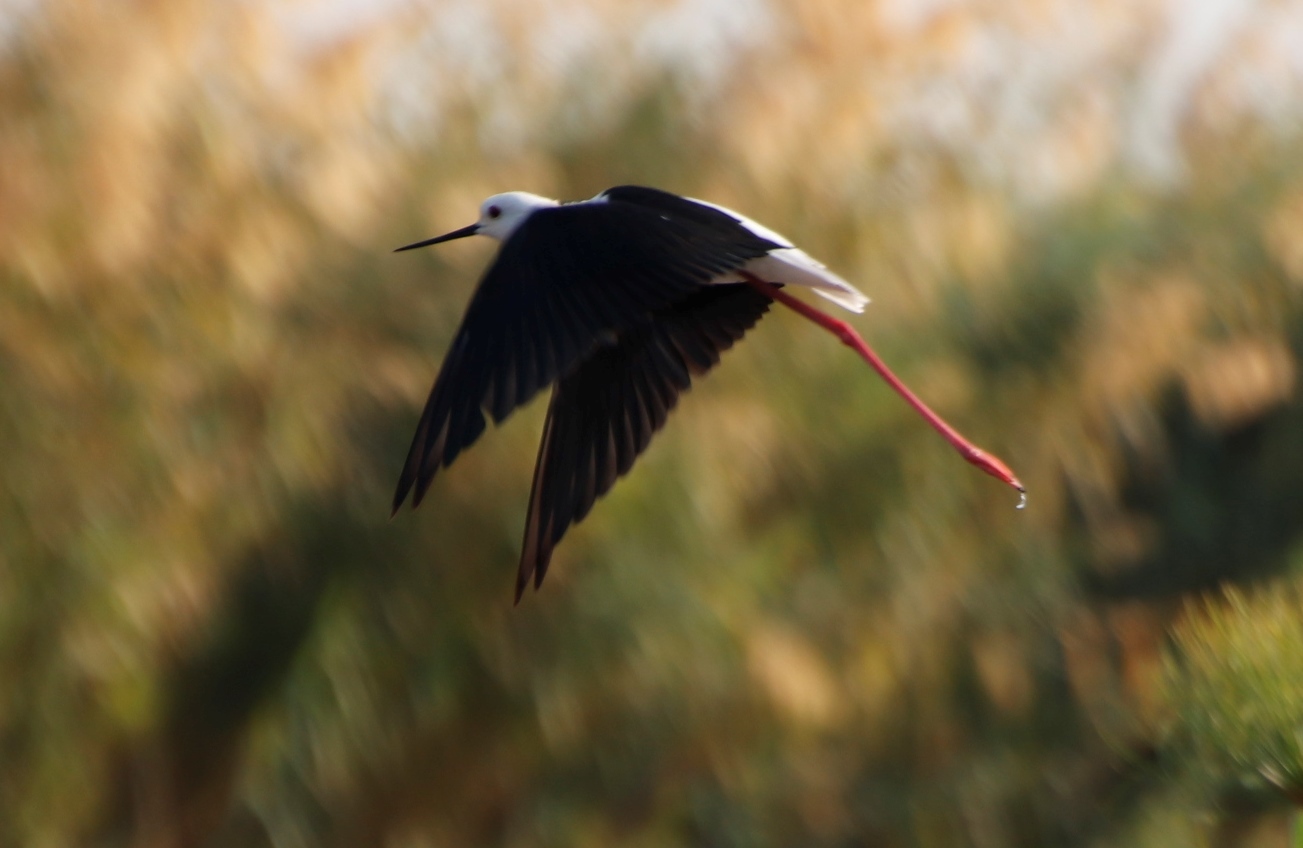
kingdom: Animalia
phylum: Chordata
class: Aves
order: Charadriiformes
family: Recurvirostridae
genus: Himantopus
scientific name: Himantopus himantopus
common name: Black-winged stilt
